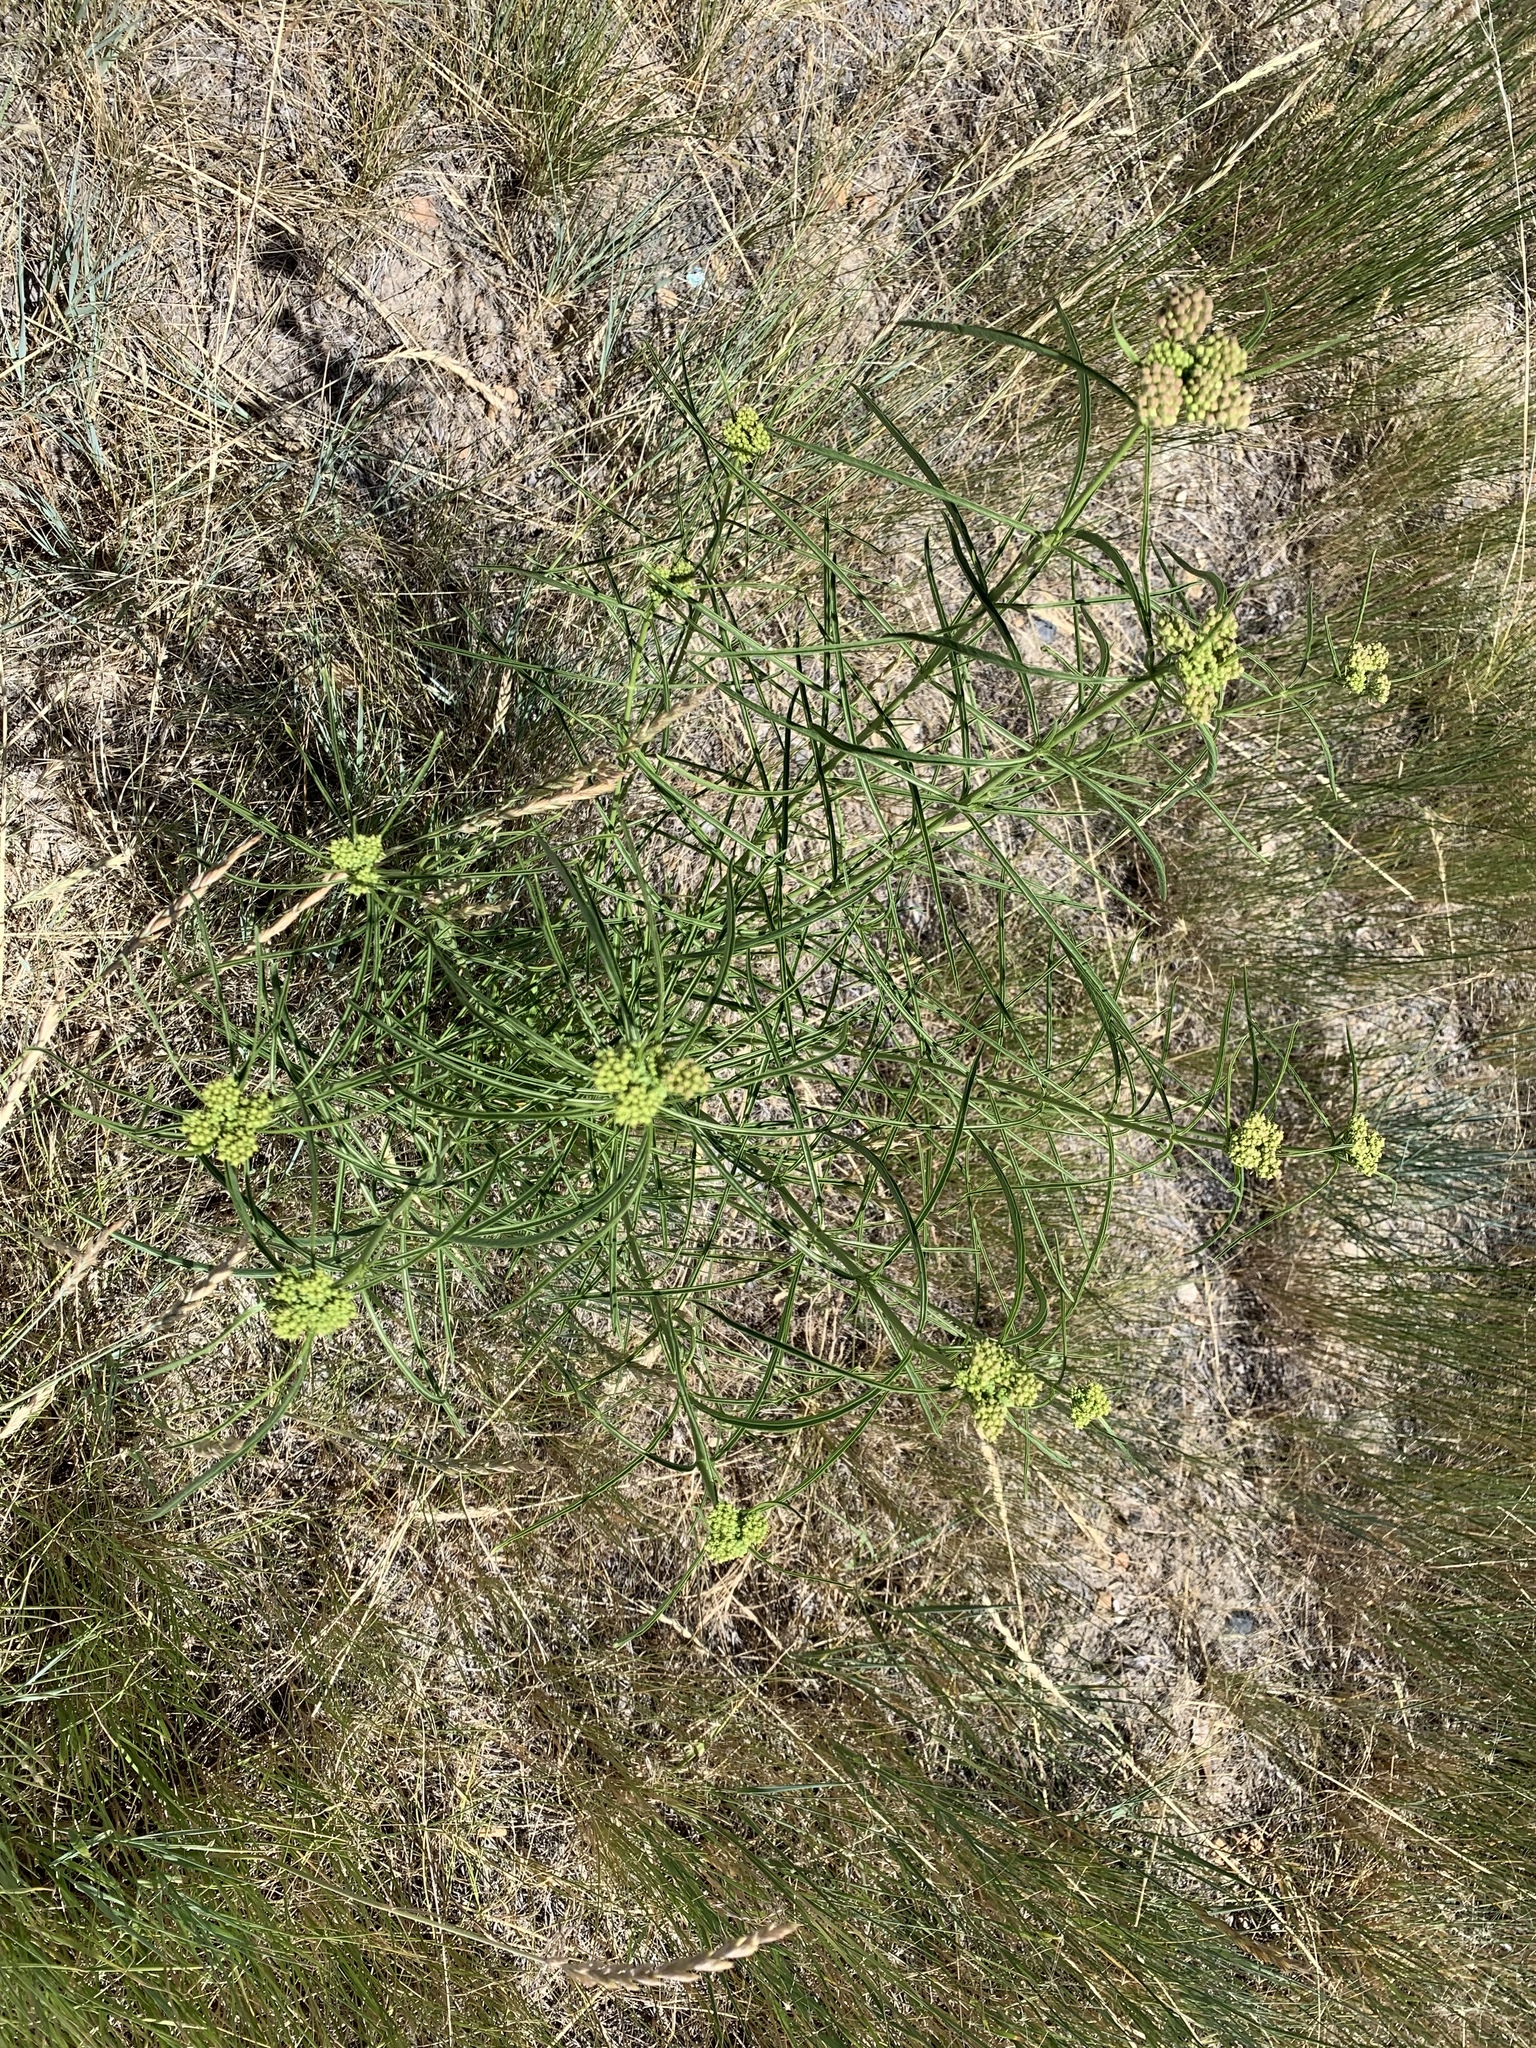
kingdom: Plantae
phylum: Tracheophyta
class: Magnoliopsida
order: Gentianales
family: Apocynaceae
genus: Asclepias
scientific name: Asclepias fascicularis
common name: Mexican milkweed
